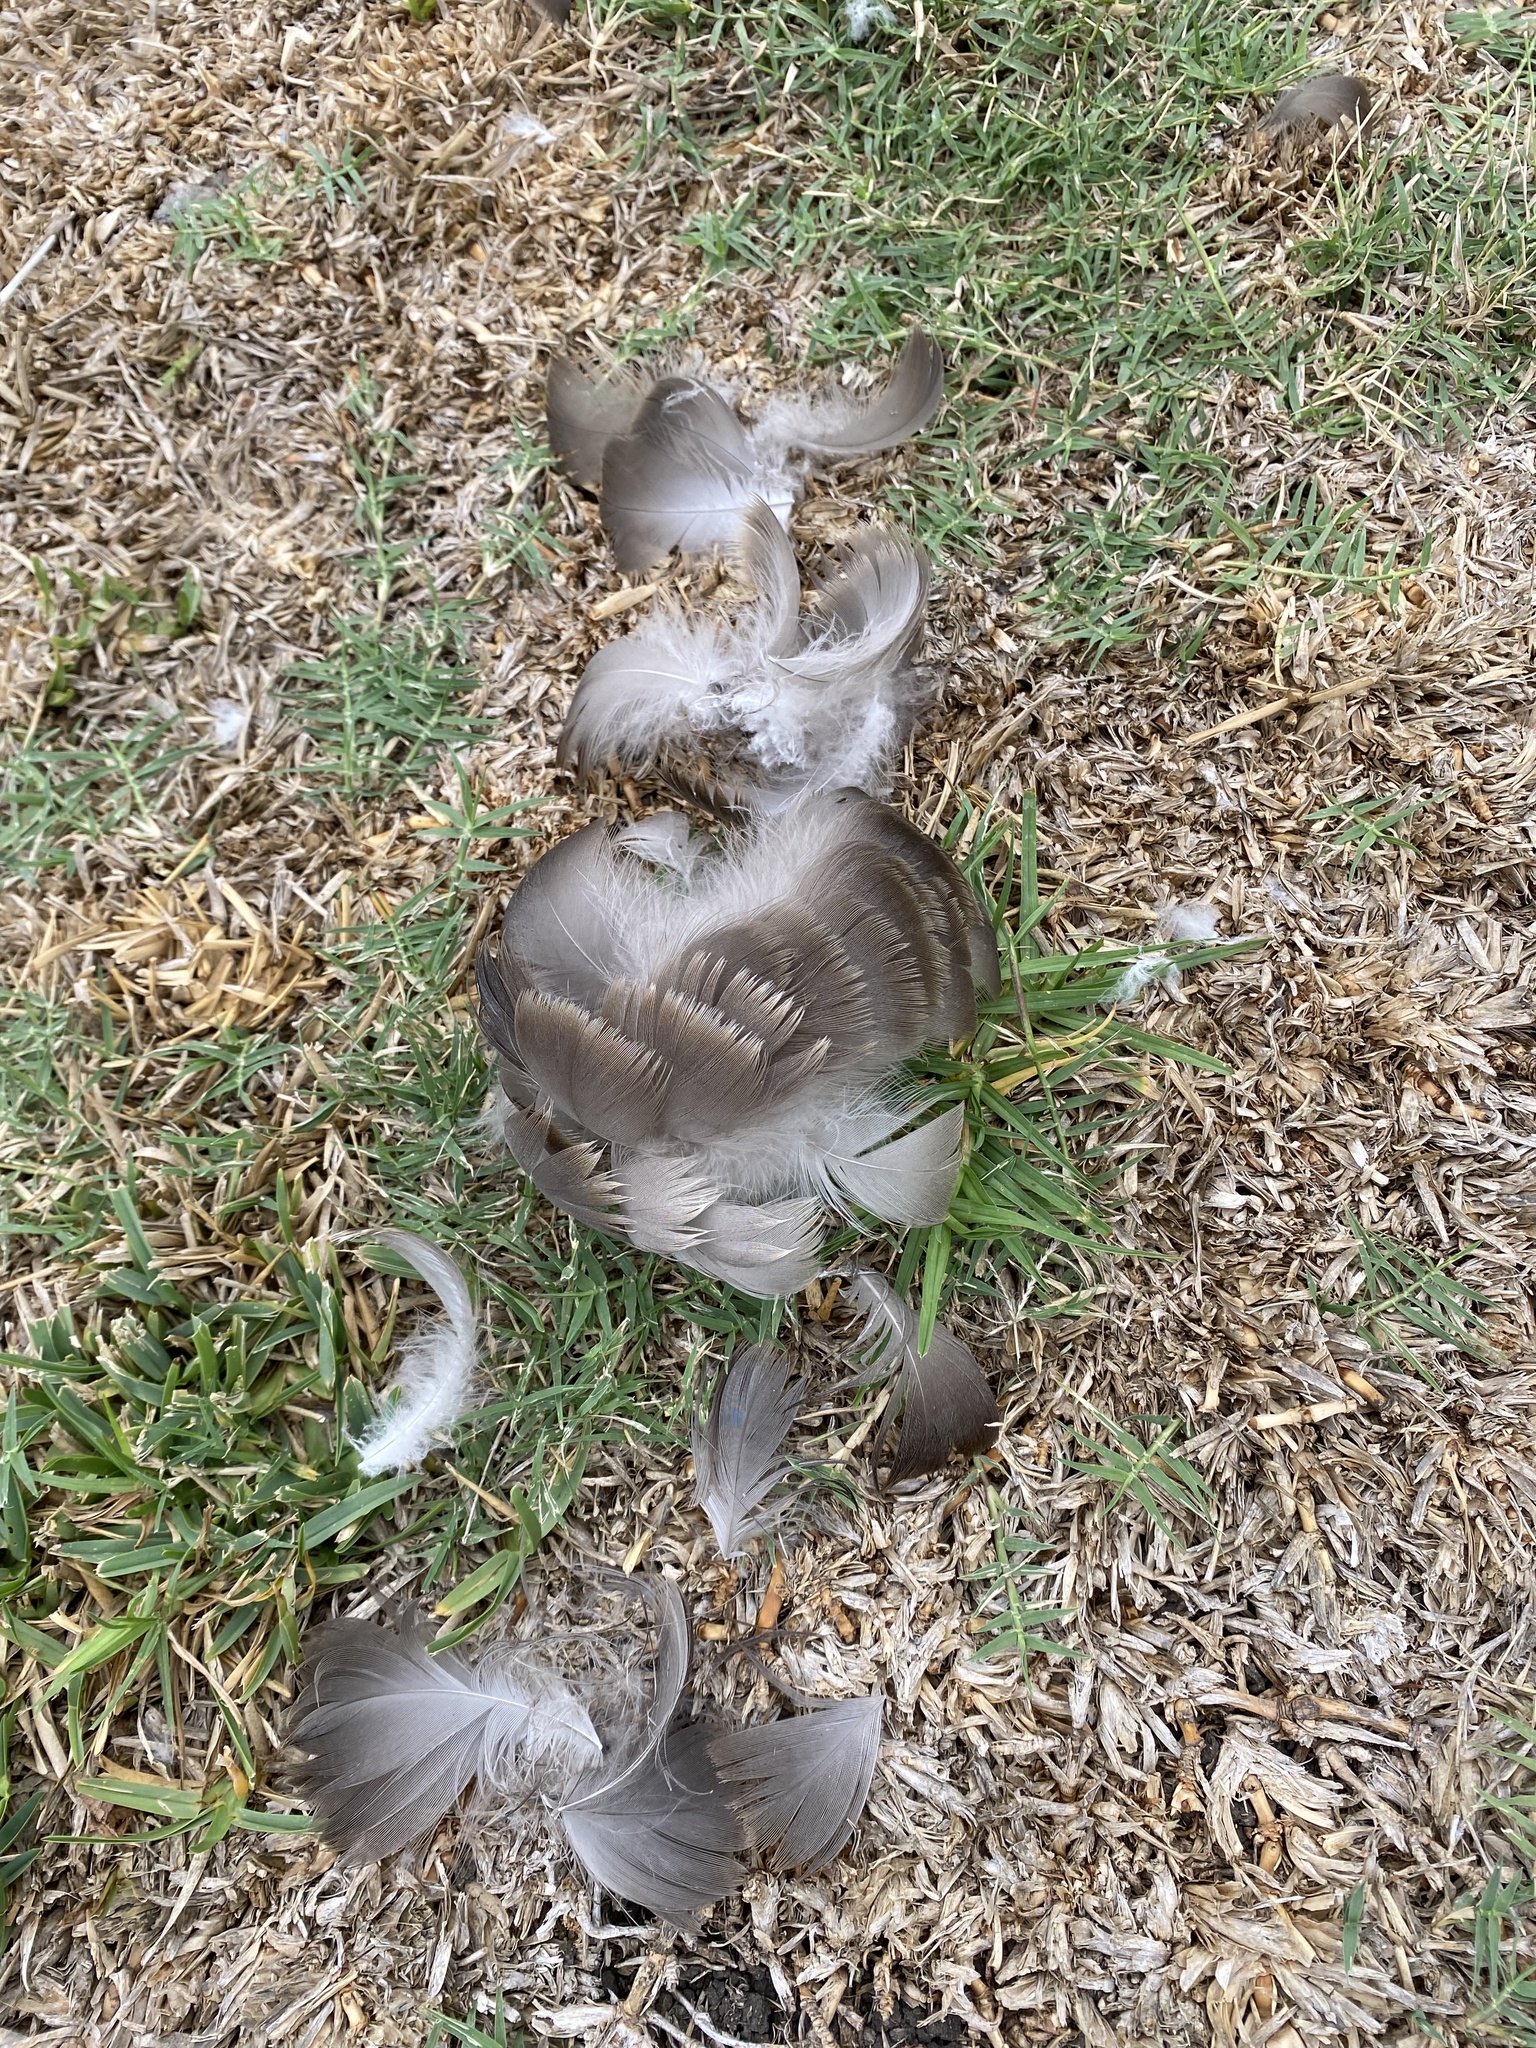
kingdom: Animalia
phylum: Chordata
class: Aves
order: Anseriformes
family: Anatidae
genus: Branta
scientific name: Branta canadensis
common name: Canada goose
